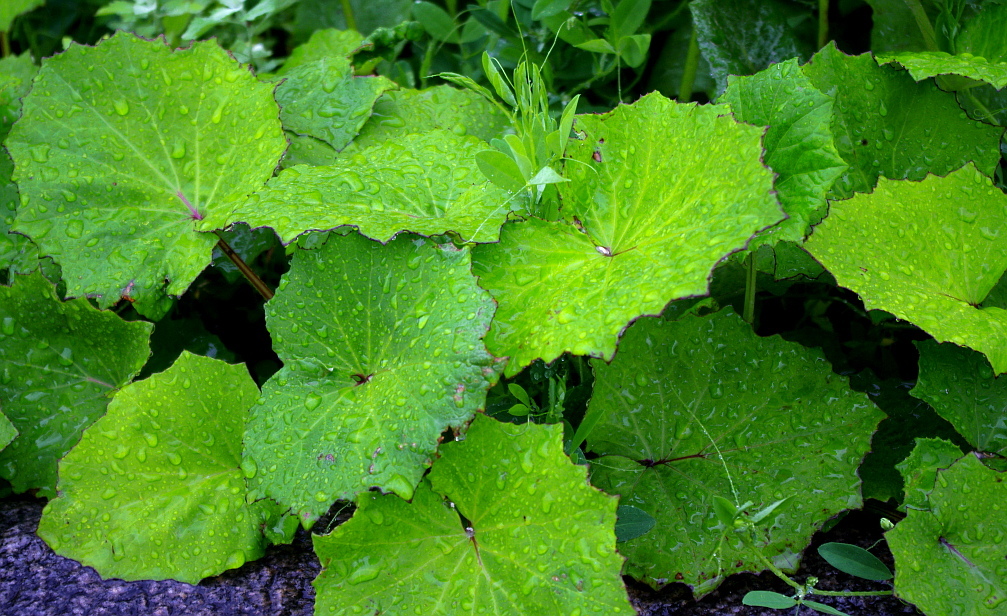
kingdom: Plantae
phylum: Tracheophyta
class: Magnoliopsida
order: Asterales
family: Asteraceae
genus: Tussilago
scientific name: Tussilago farfara
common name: Coltsfoot
